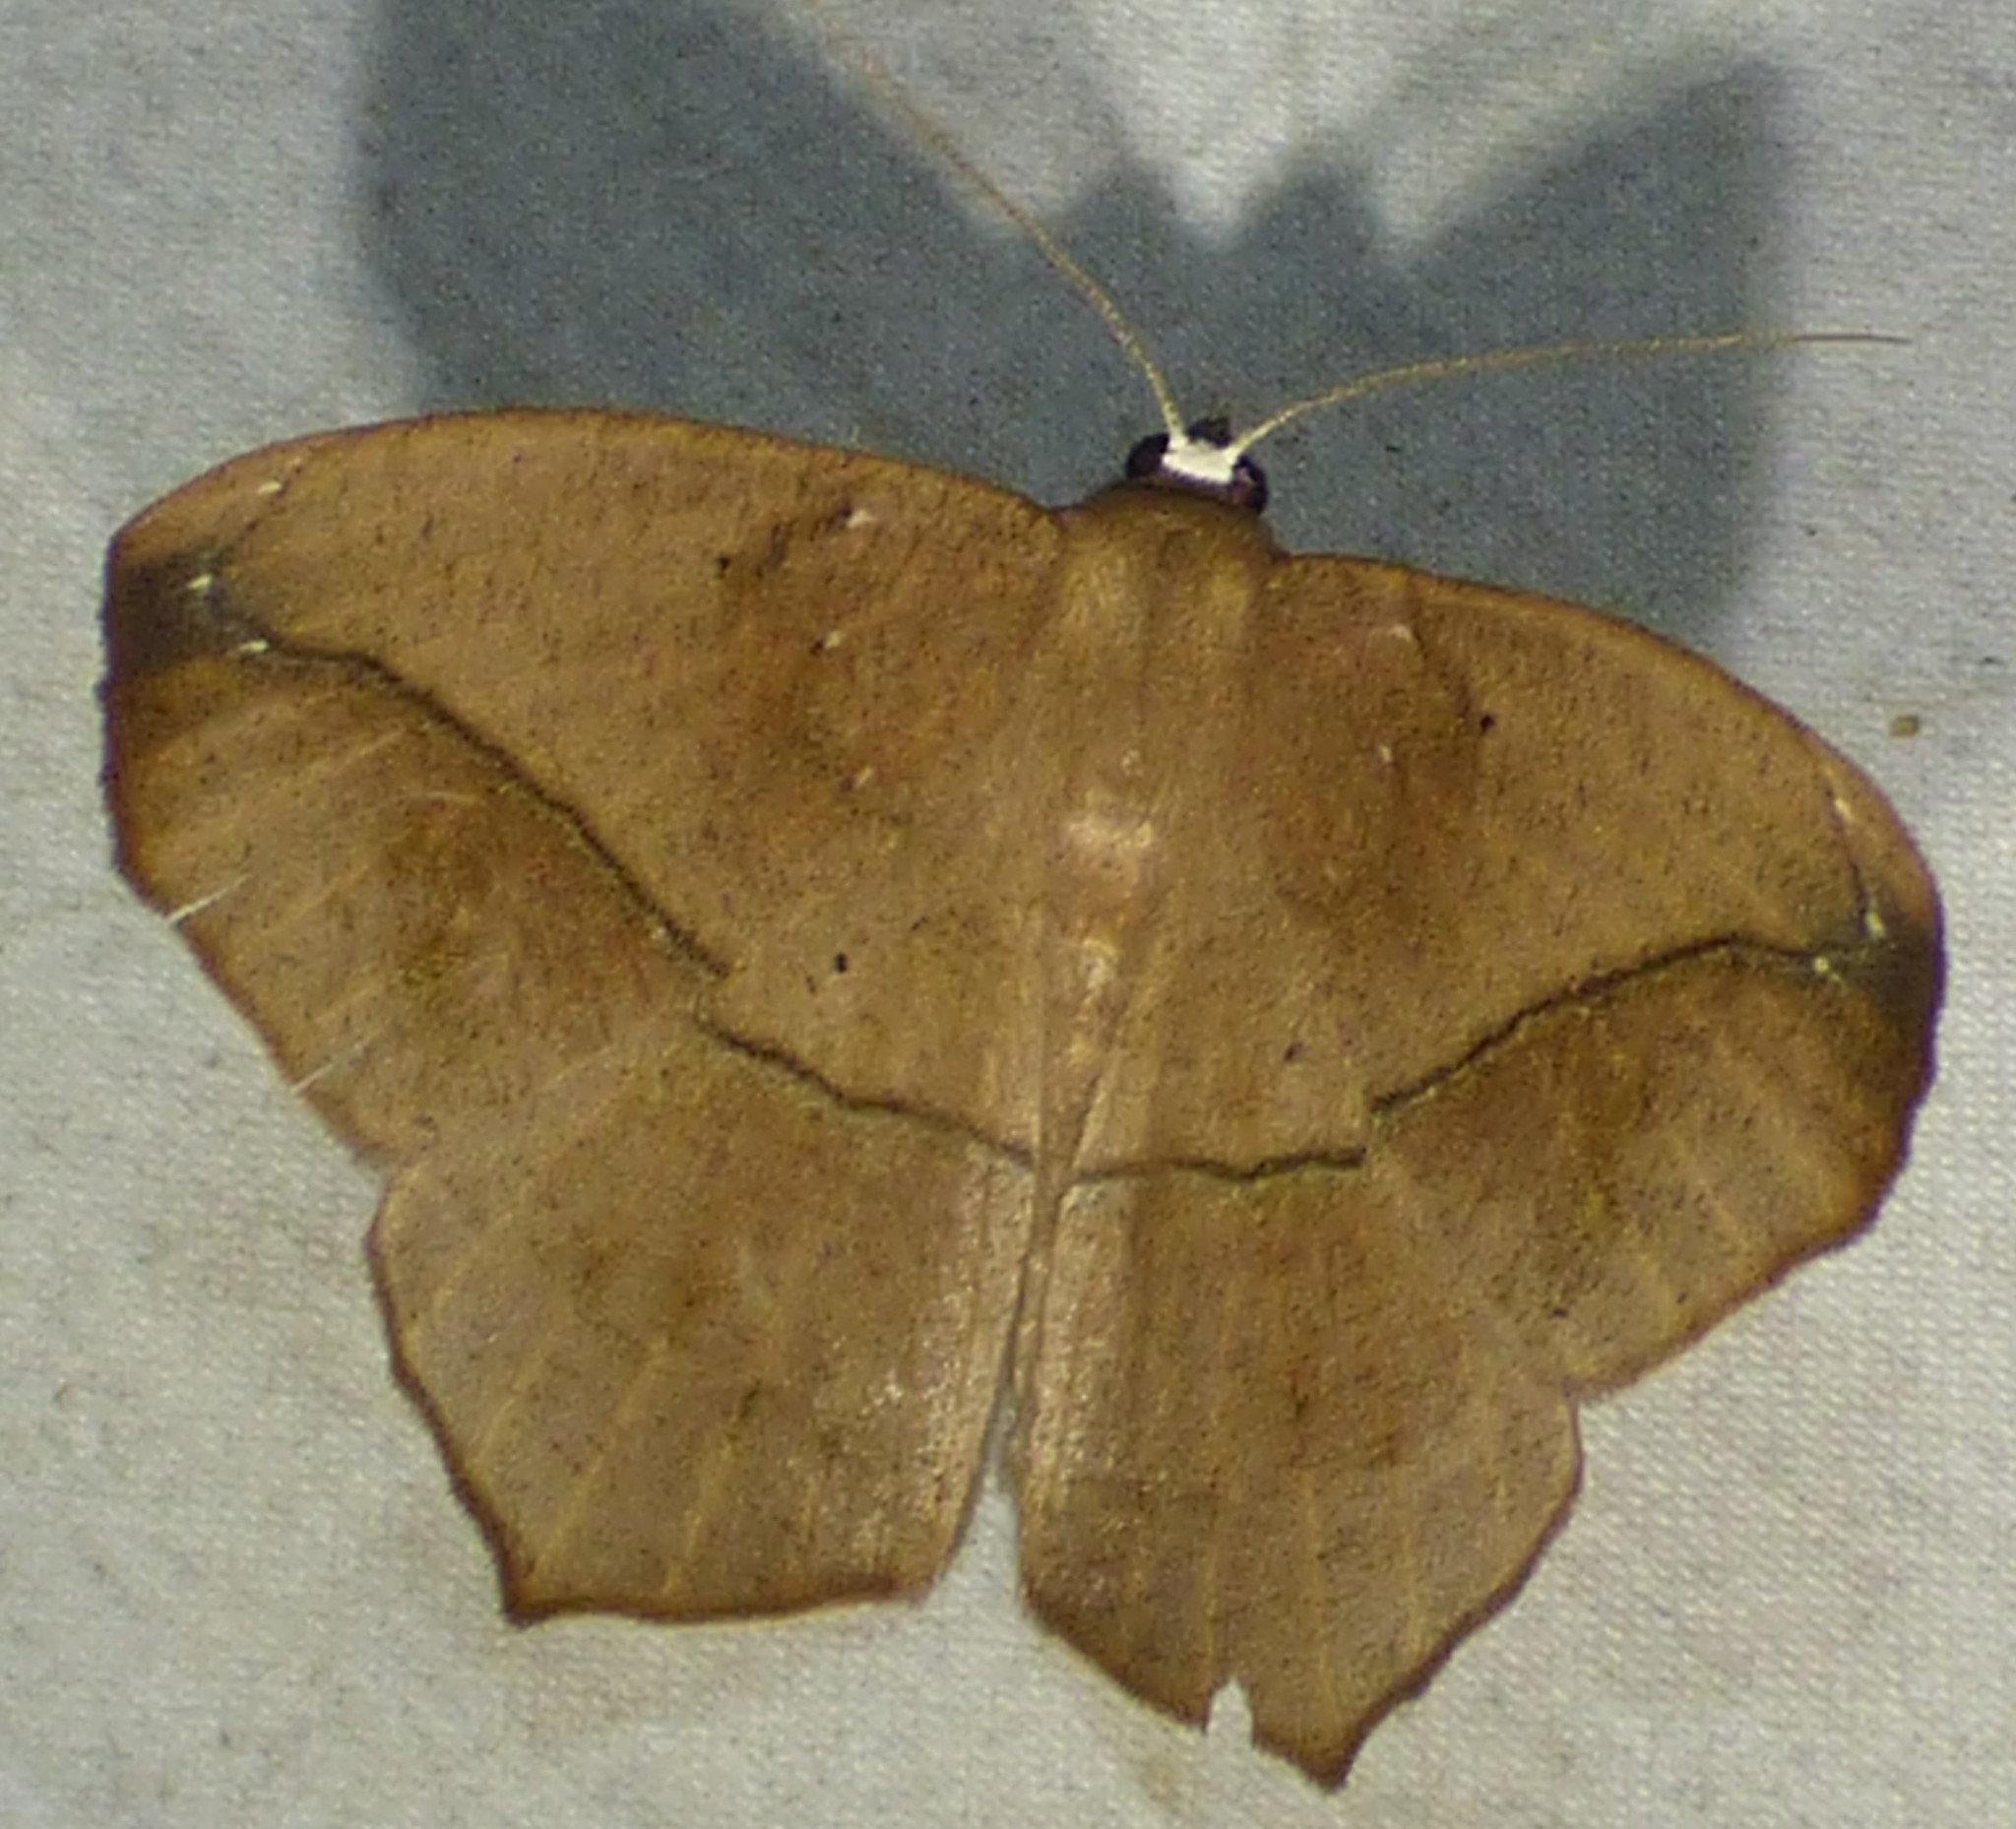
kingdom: Animalia
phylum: Arthropoda
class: Insecta
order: Lepidoptera
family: Geometridae
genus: Prochoerodes
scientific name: Prochoerodes lineola
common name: Large maple spanworm
